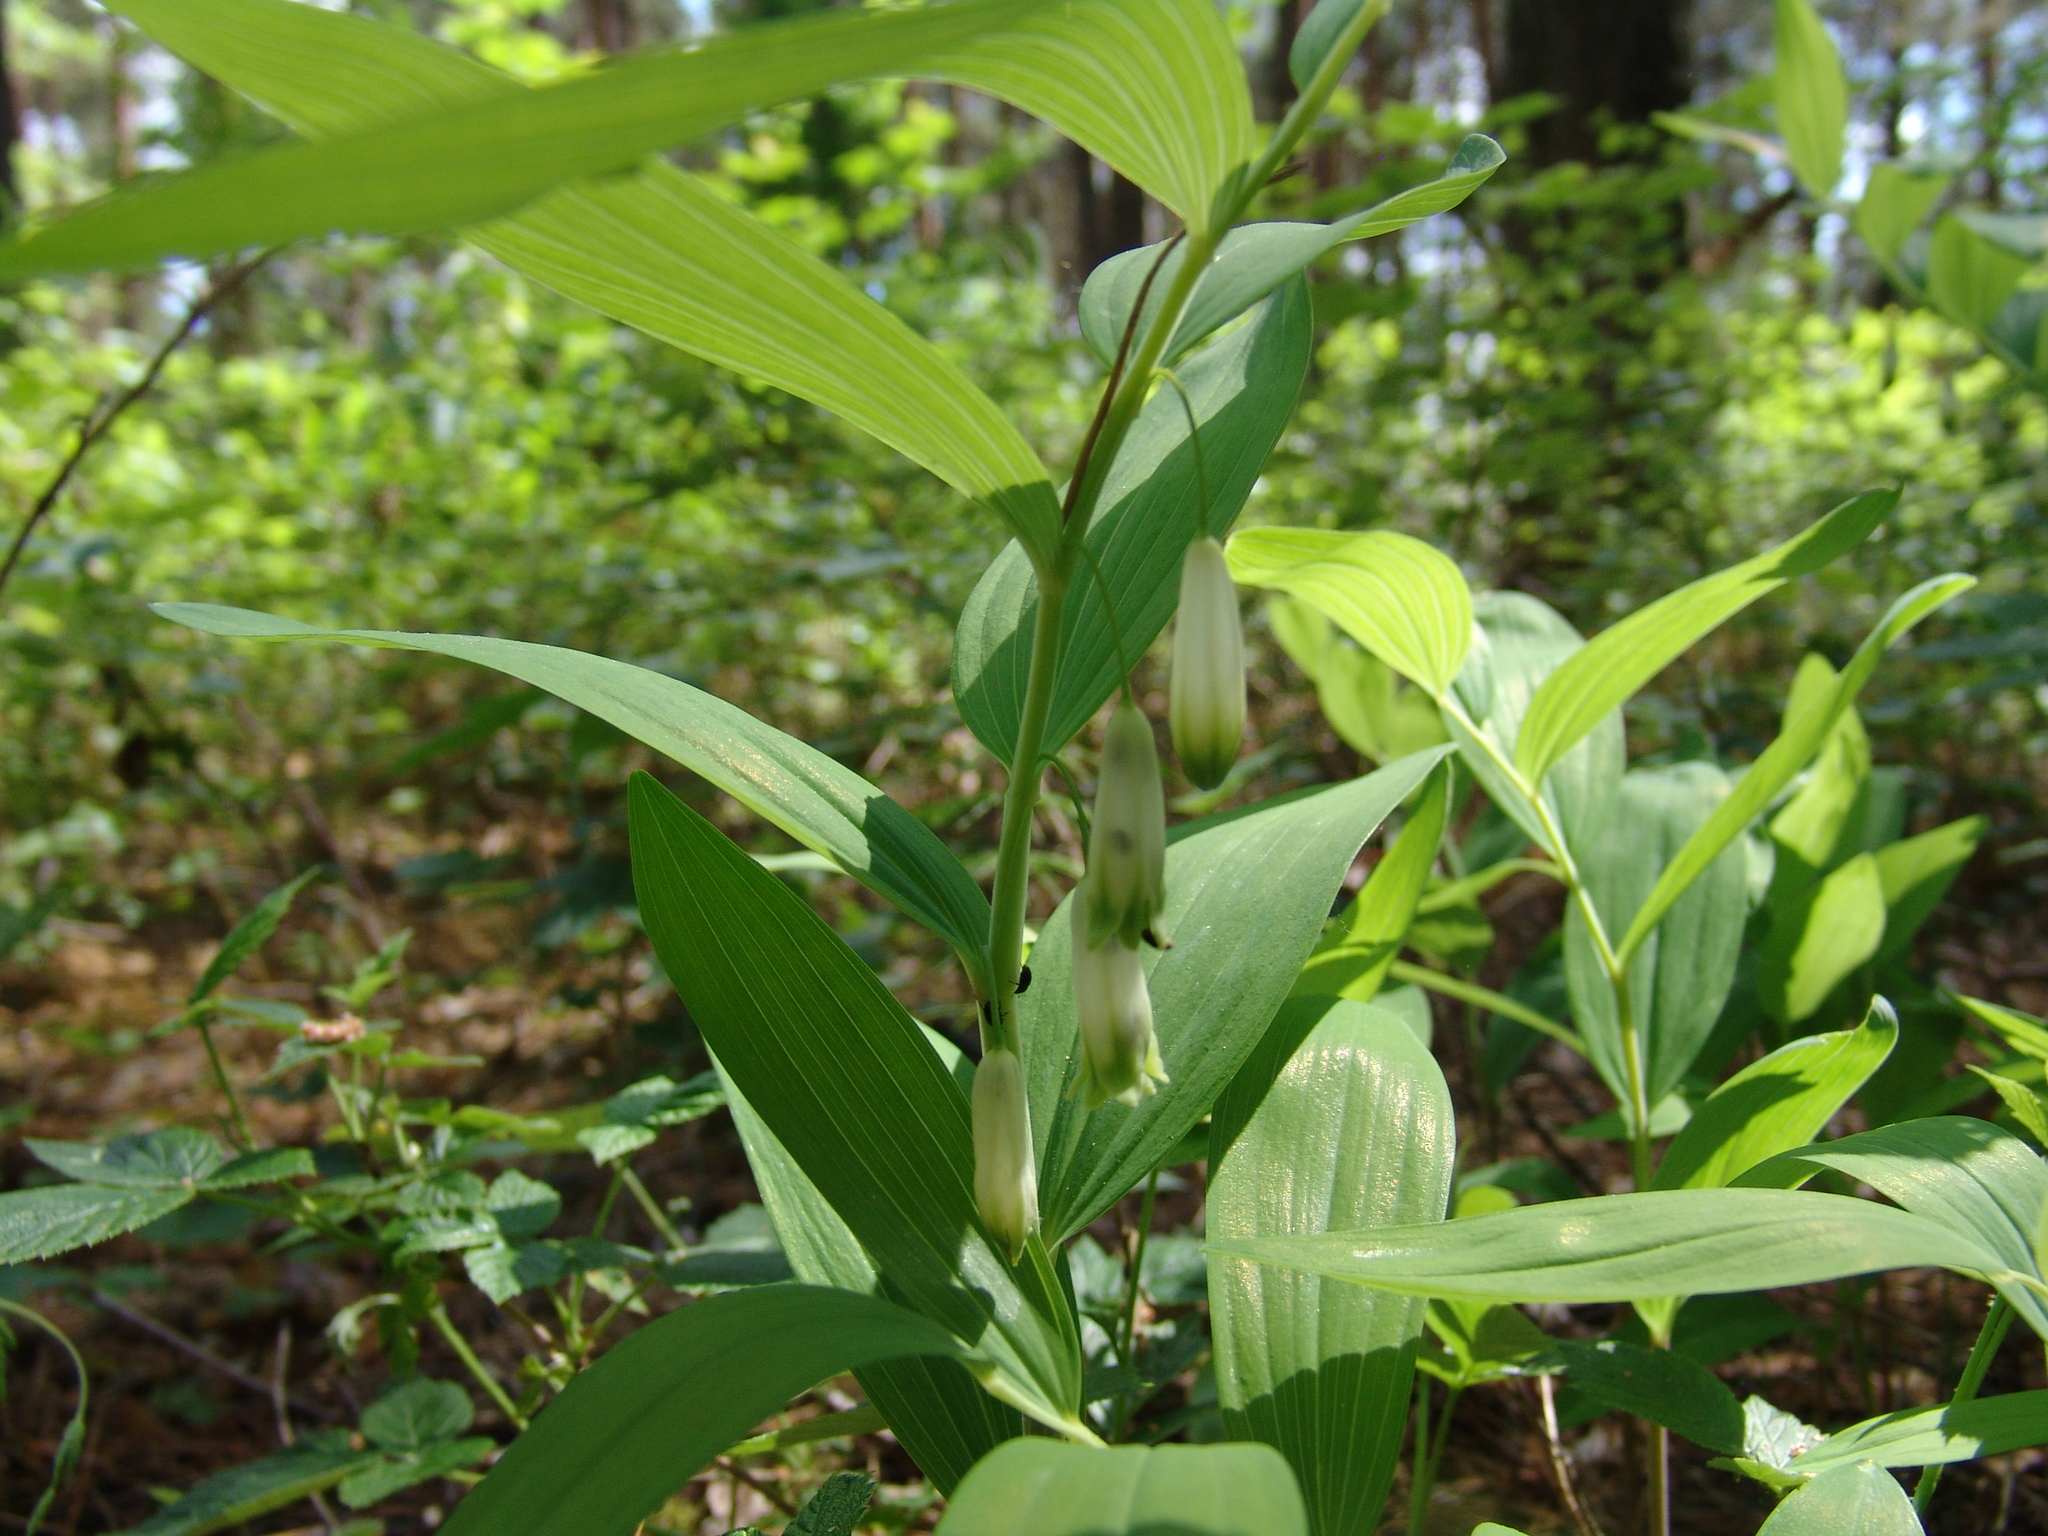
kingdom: Plantae
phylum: Tracheophyta
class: Liliopsida
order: Asparagales
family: Asparagaceae
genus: Polygonatum
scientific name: Polygonatum odoratum
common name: Angular solomon's-seal
